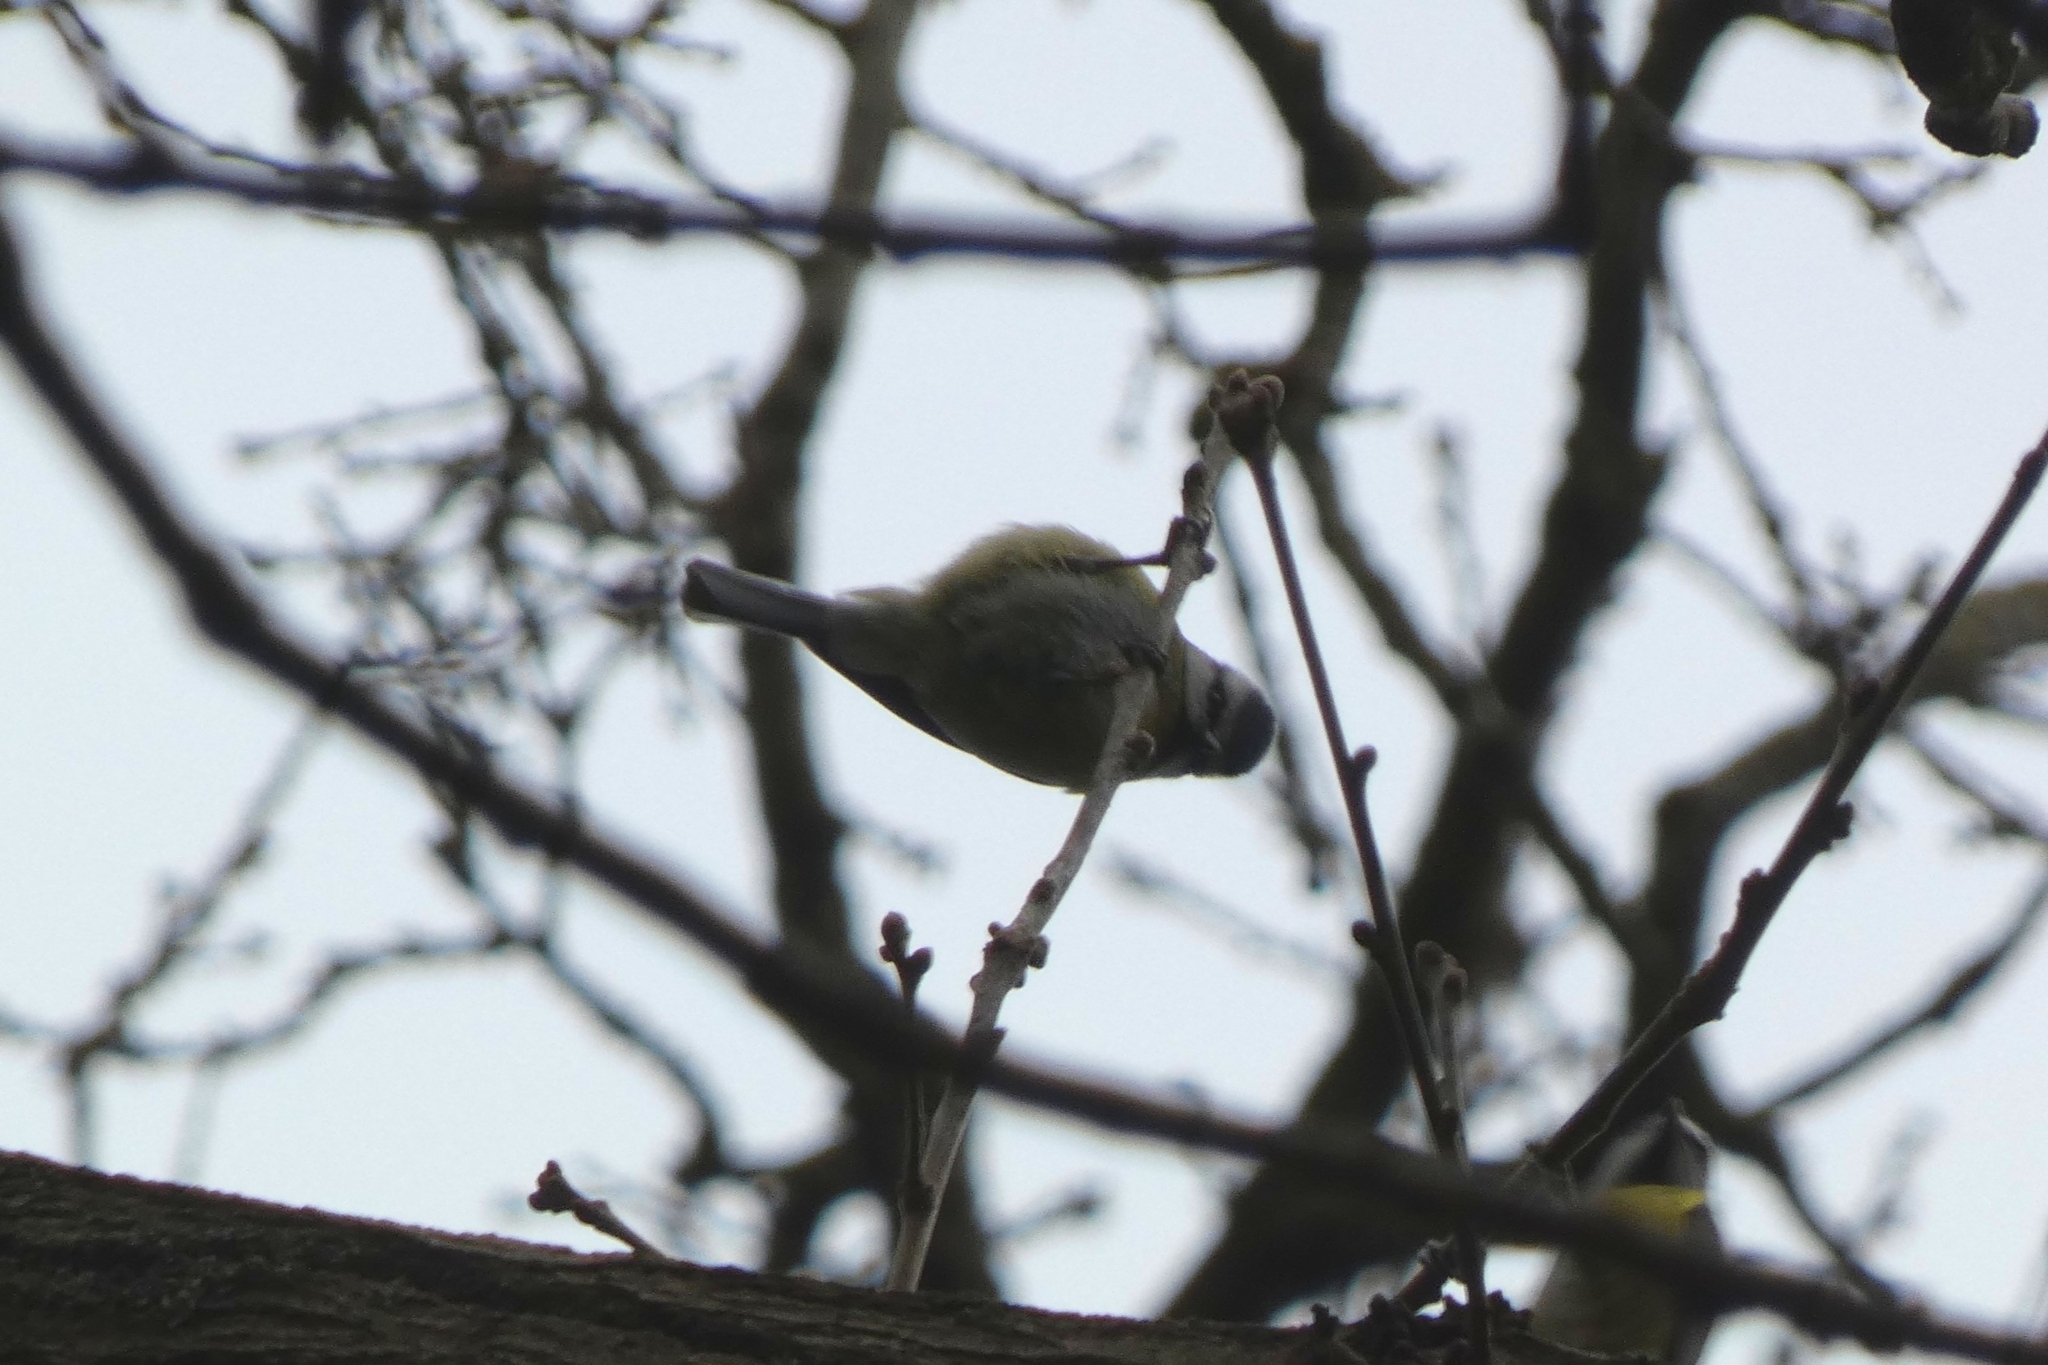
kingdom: Animalia
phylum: Chordata
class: Aves
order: Passeriformes
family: Paridae
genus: Cyanistes
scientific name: Cyanistes caeruleus
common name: Eurasian blue tit
